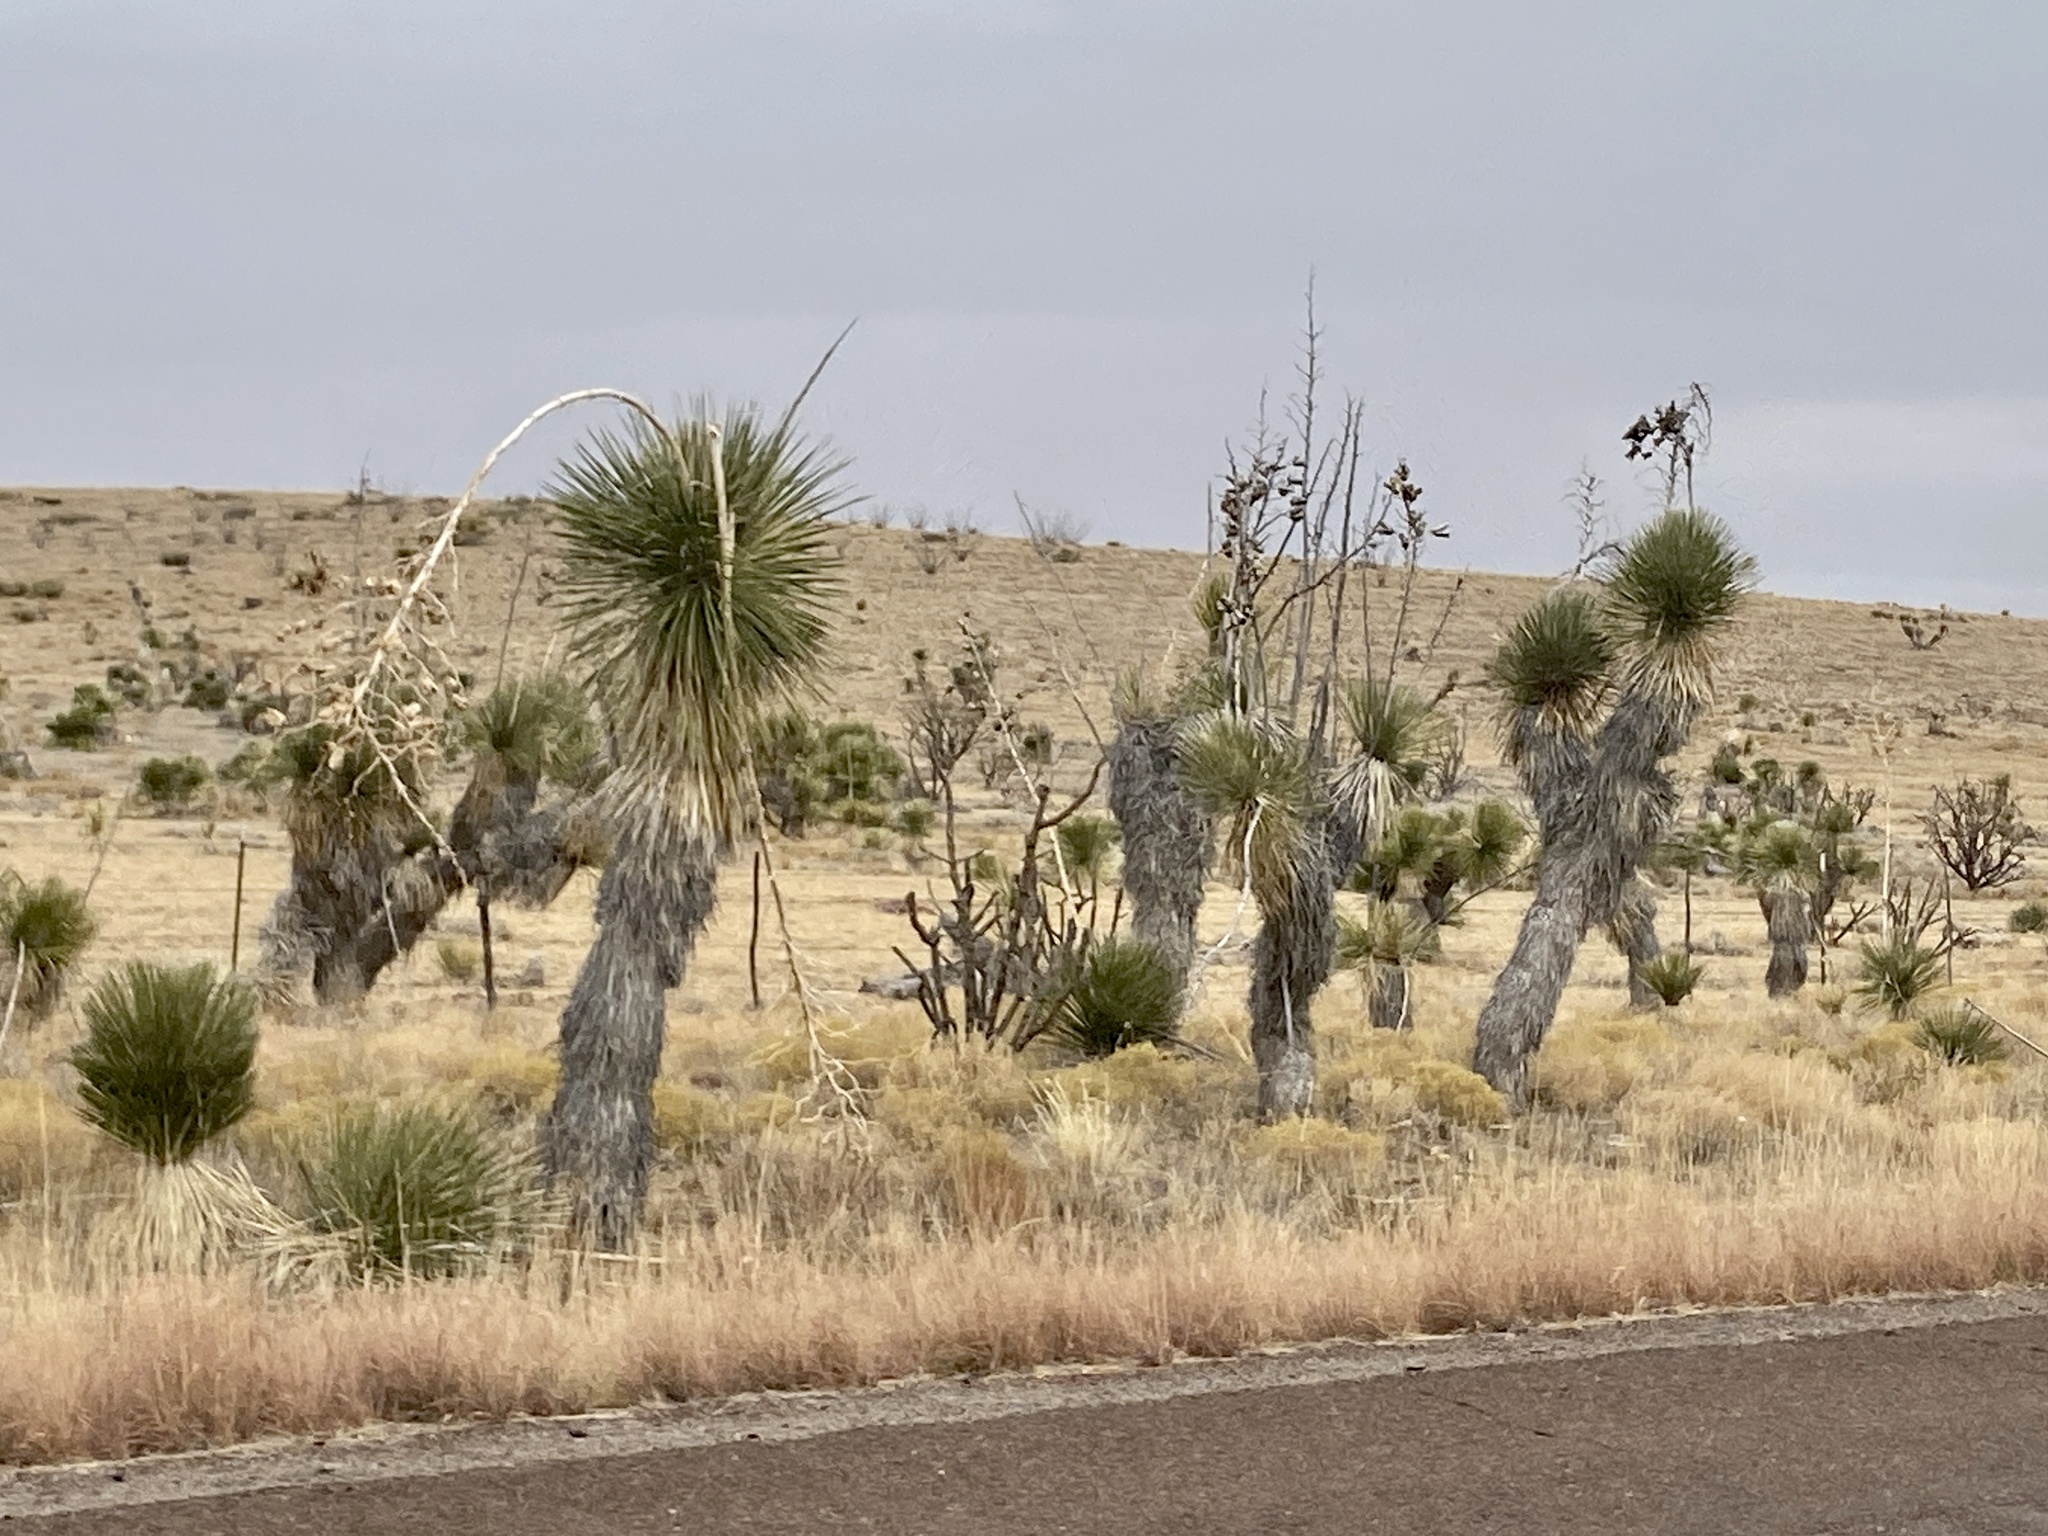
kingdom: Plantae
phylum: Tracheophyta
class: Liliopsida
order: Asparagales
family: Asparagaceae
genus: Yucca
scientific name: Yucca elata
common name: Palmella
